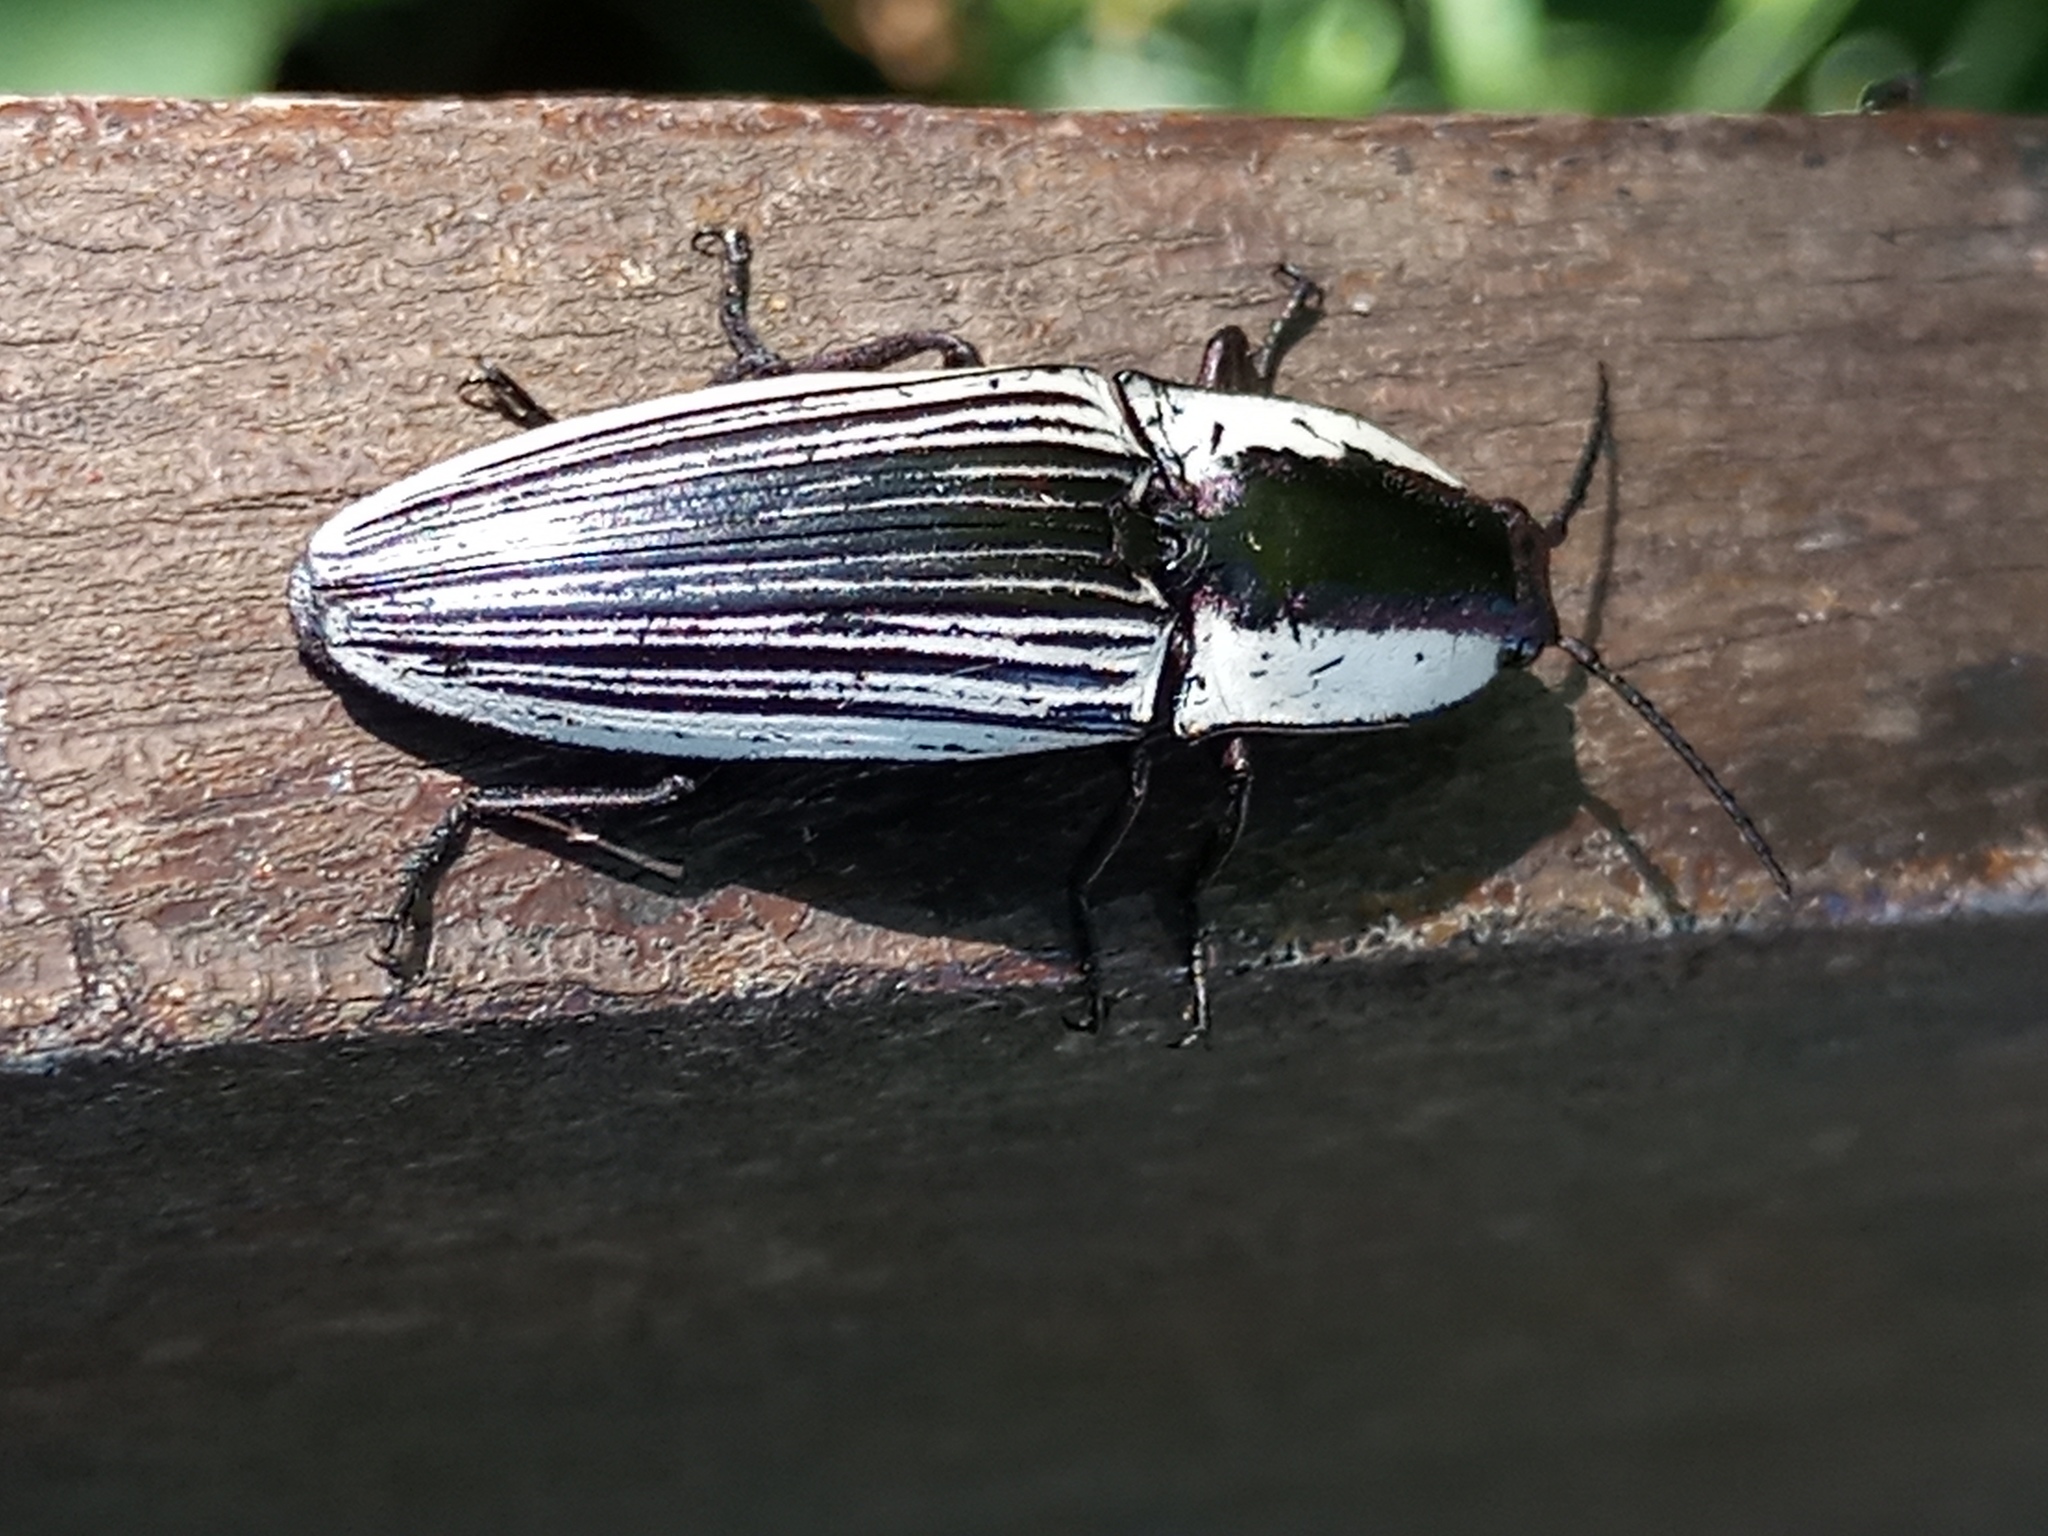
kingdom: Animalia
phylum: Arthropoda
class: Insecta
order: Coleoptera
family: Elateridae
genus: Chalcolepidius
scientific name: Chalcolepidius
